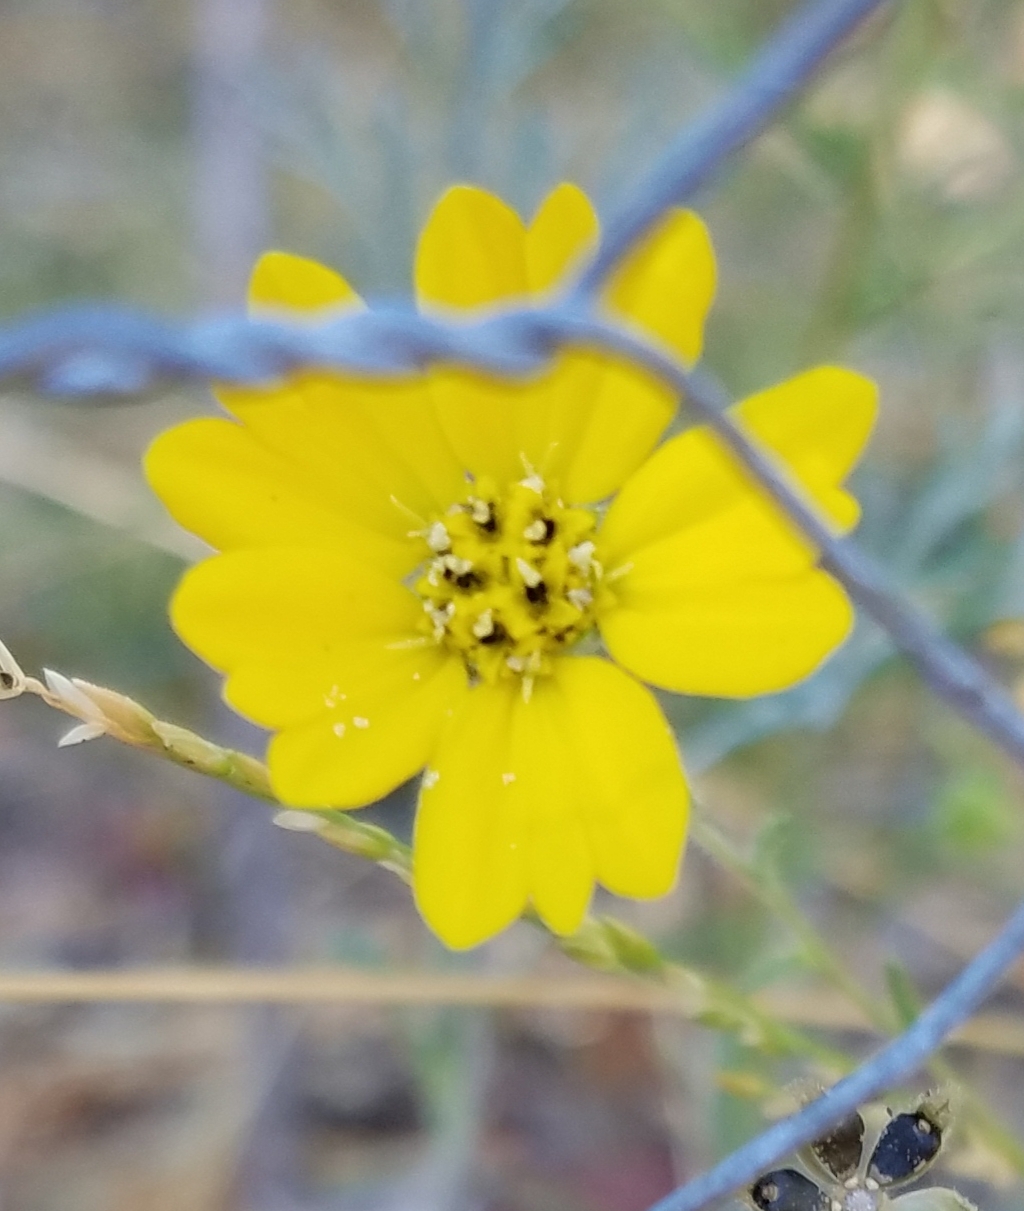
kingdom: Plantae
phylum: Tracheophyta
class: Magnoliopsida
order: Asterales
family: Asteraceae
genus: Hemizonia
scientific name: Hemizonia congesta
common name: Hayfield tarweed
